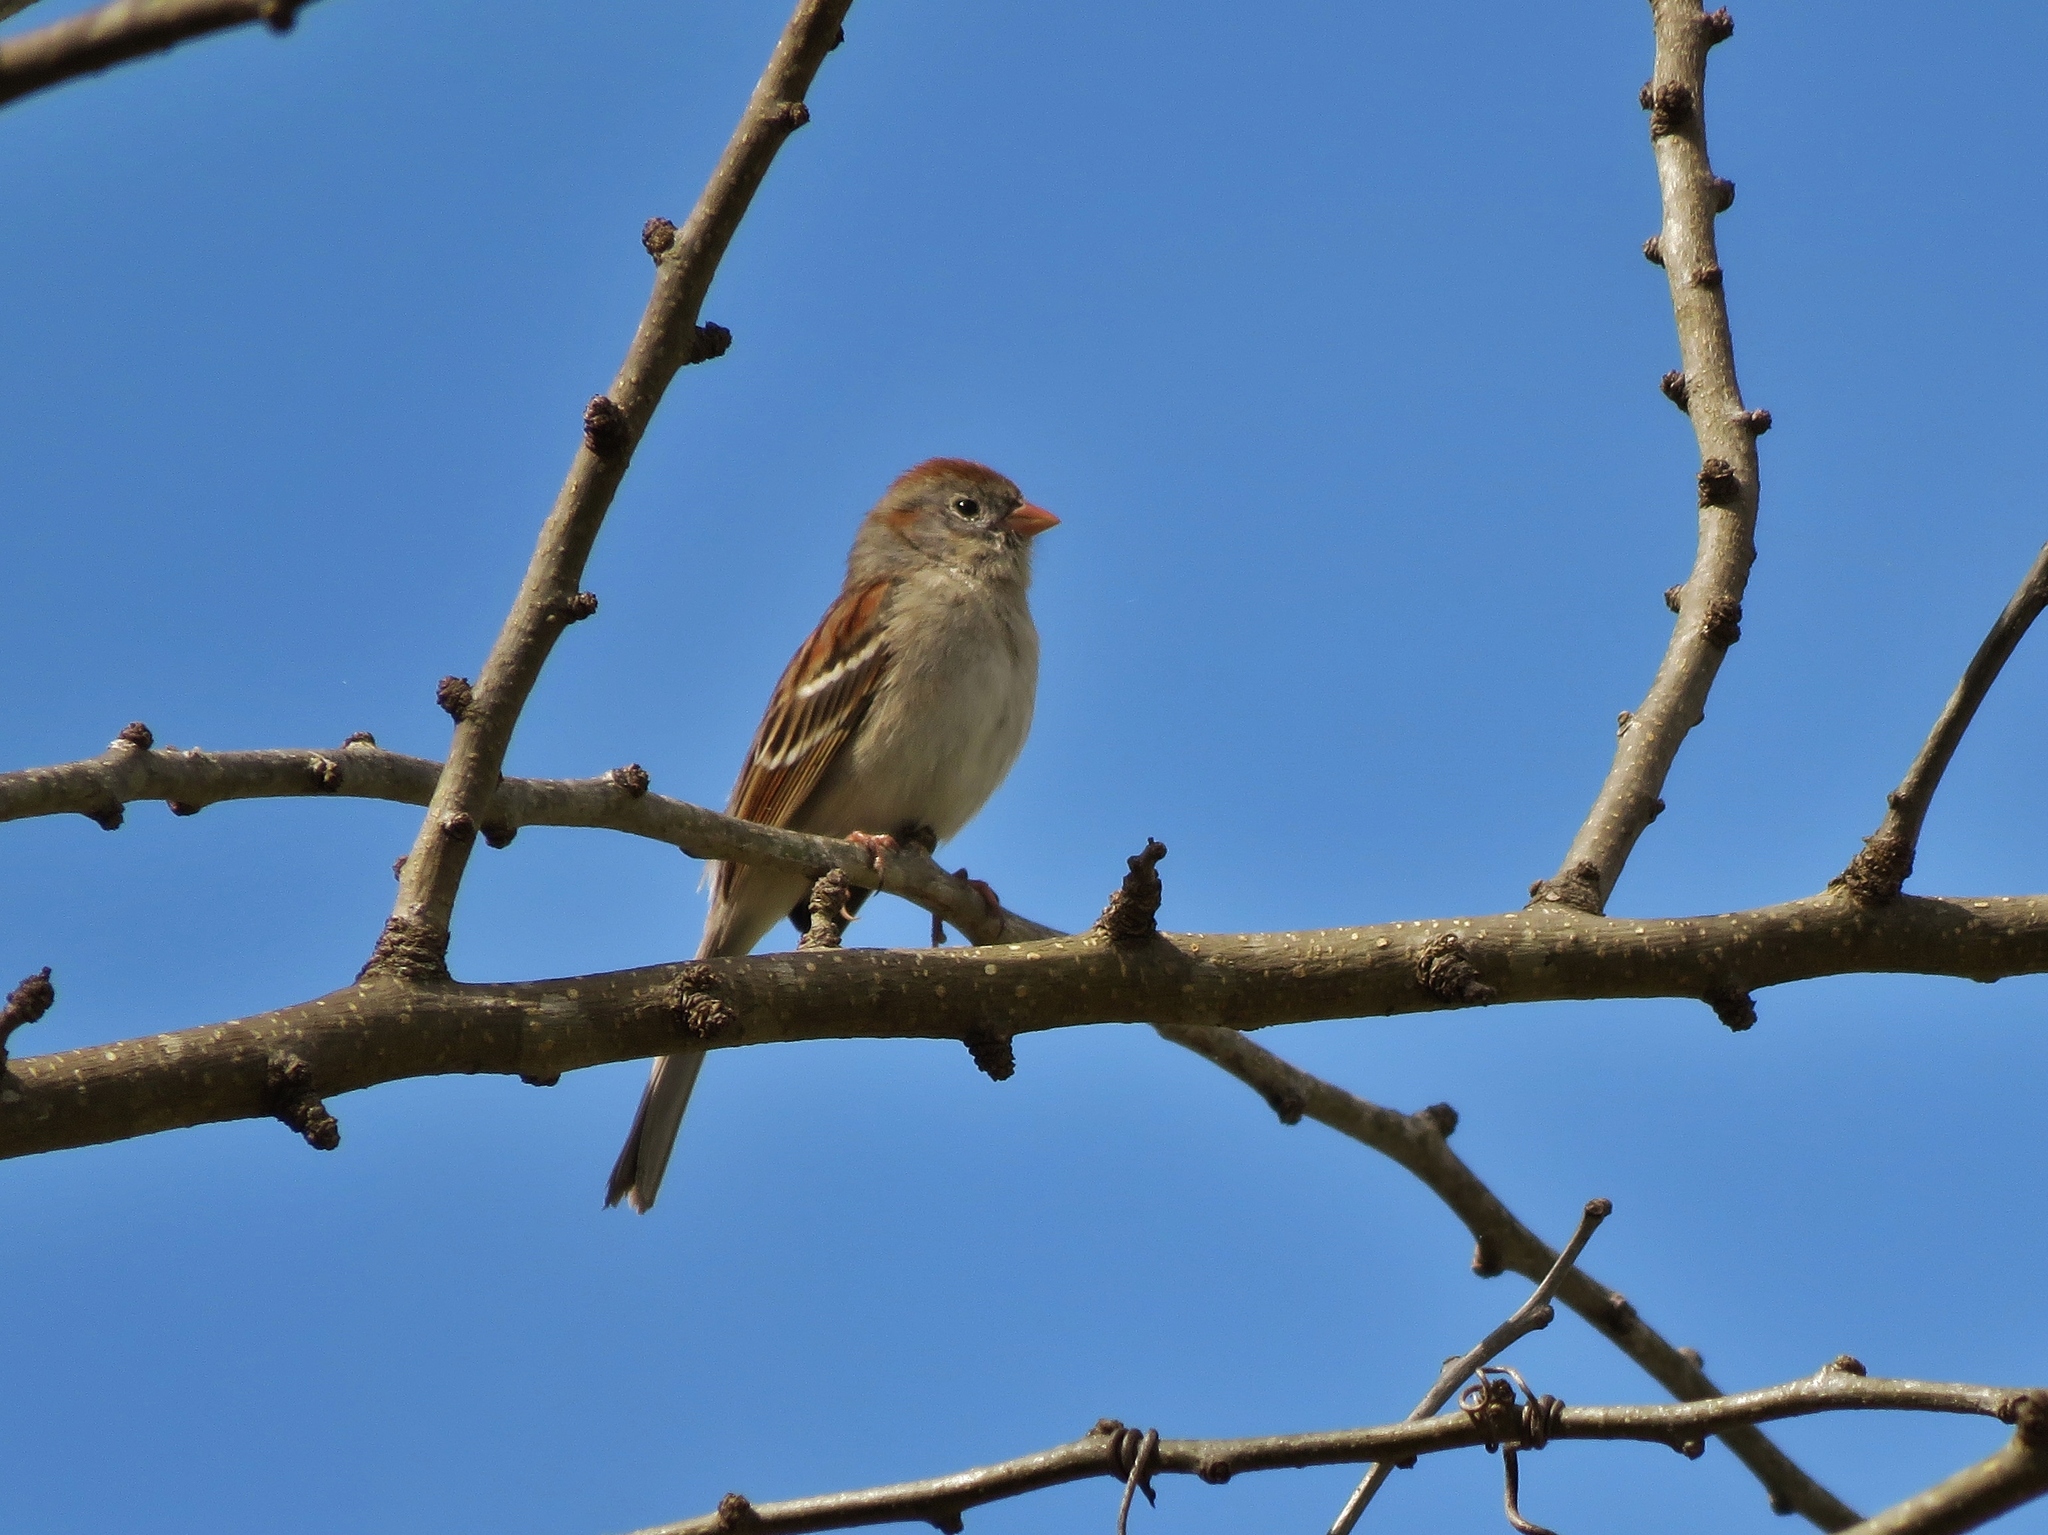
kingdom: Animalia
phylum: Chordata
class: Aves
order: Passeriformes
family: Passerellidae
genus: Spizella
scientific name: Spizella pusilla
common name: Field sparrow
